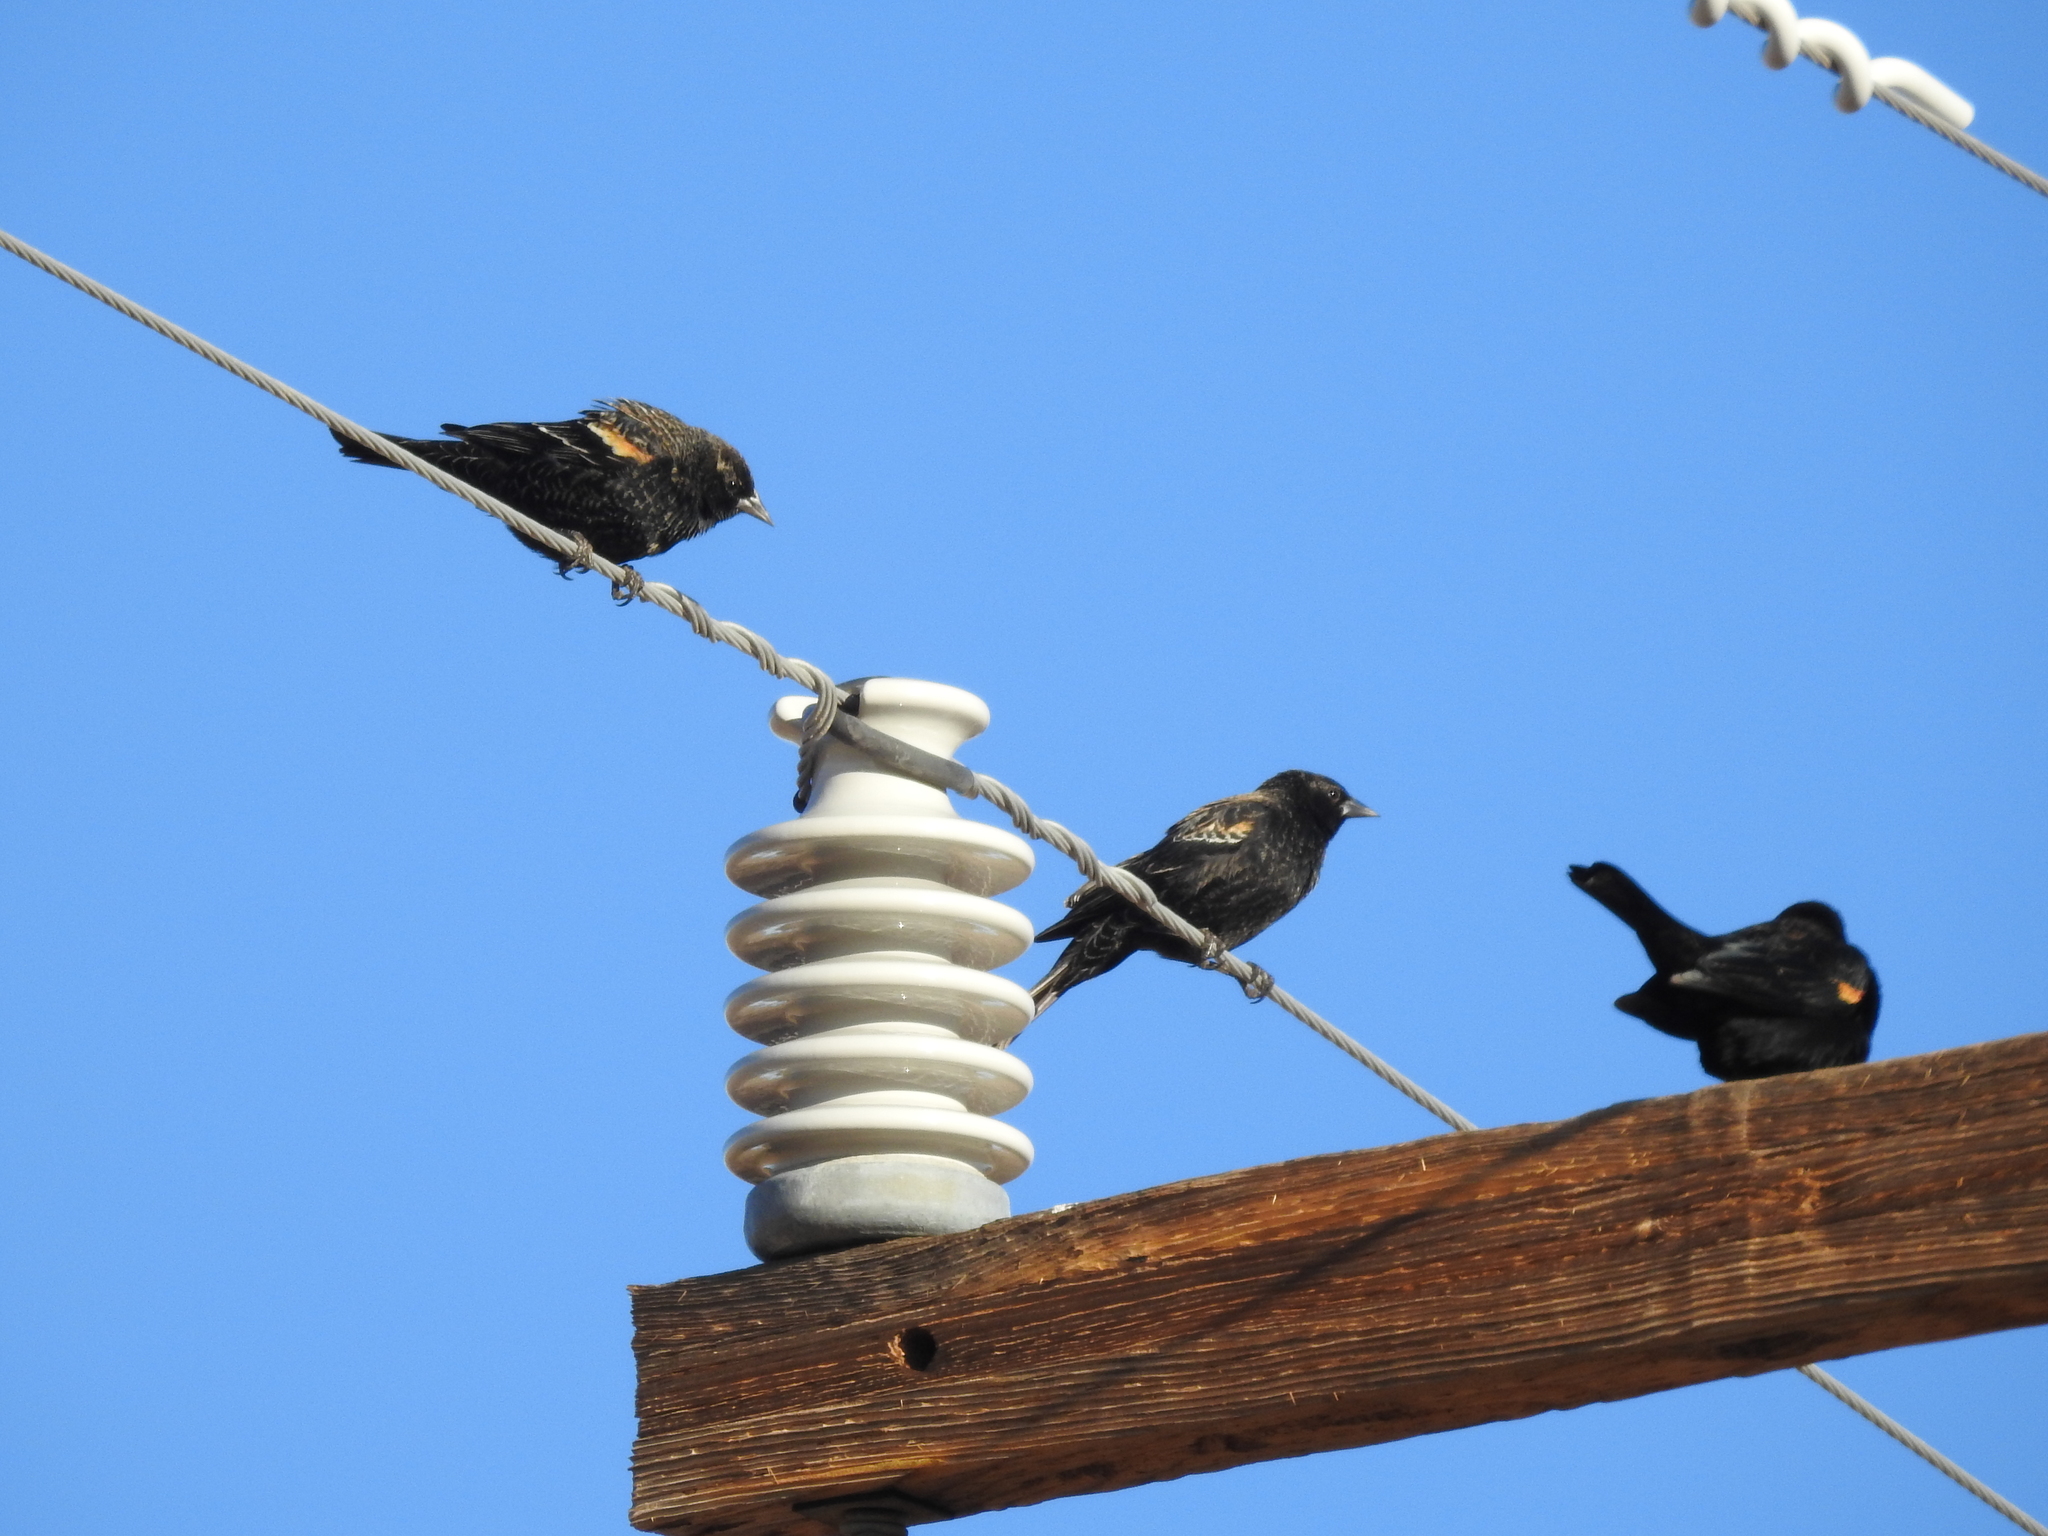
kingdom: Animalia
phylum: Chordata
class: Aves
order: Passeriformes
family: Icteridae
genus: Agelaius
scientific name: Agelaius phoeniceus
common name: Red-winged blackbird
